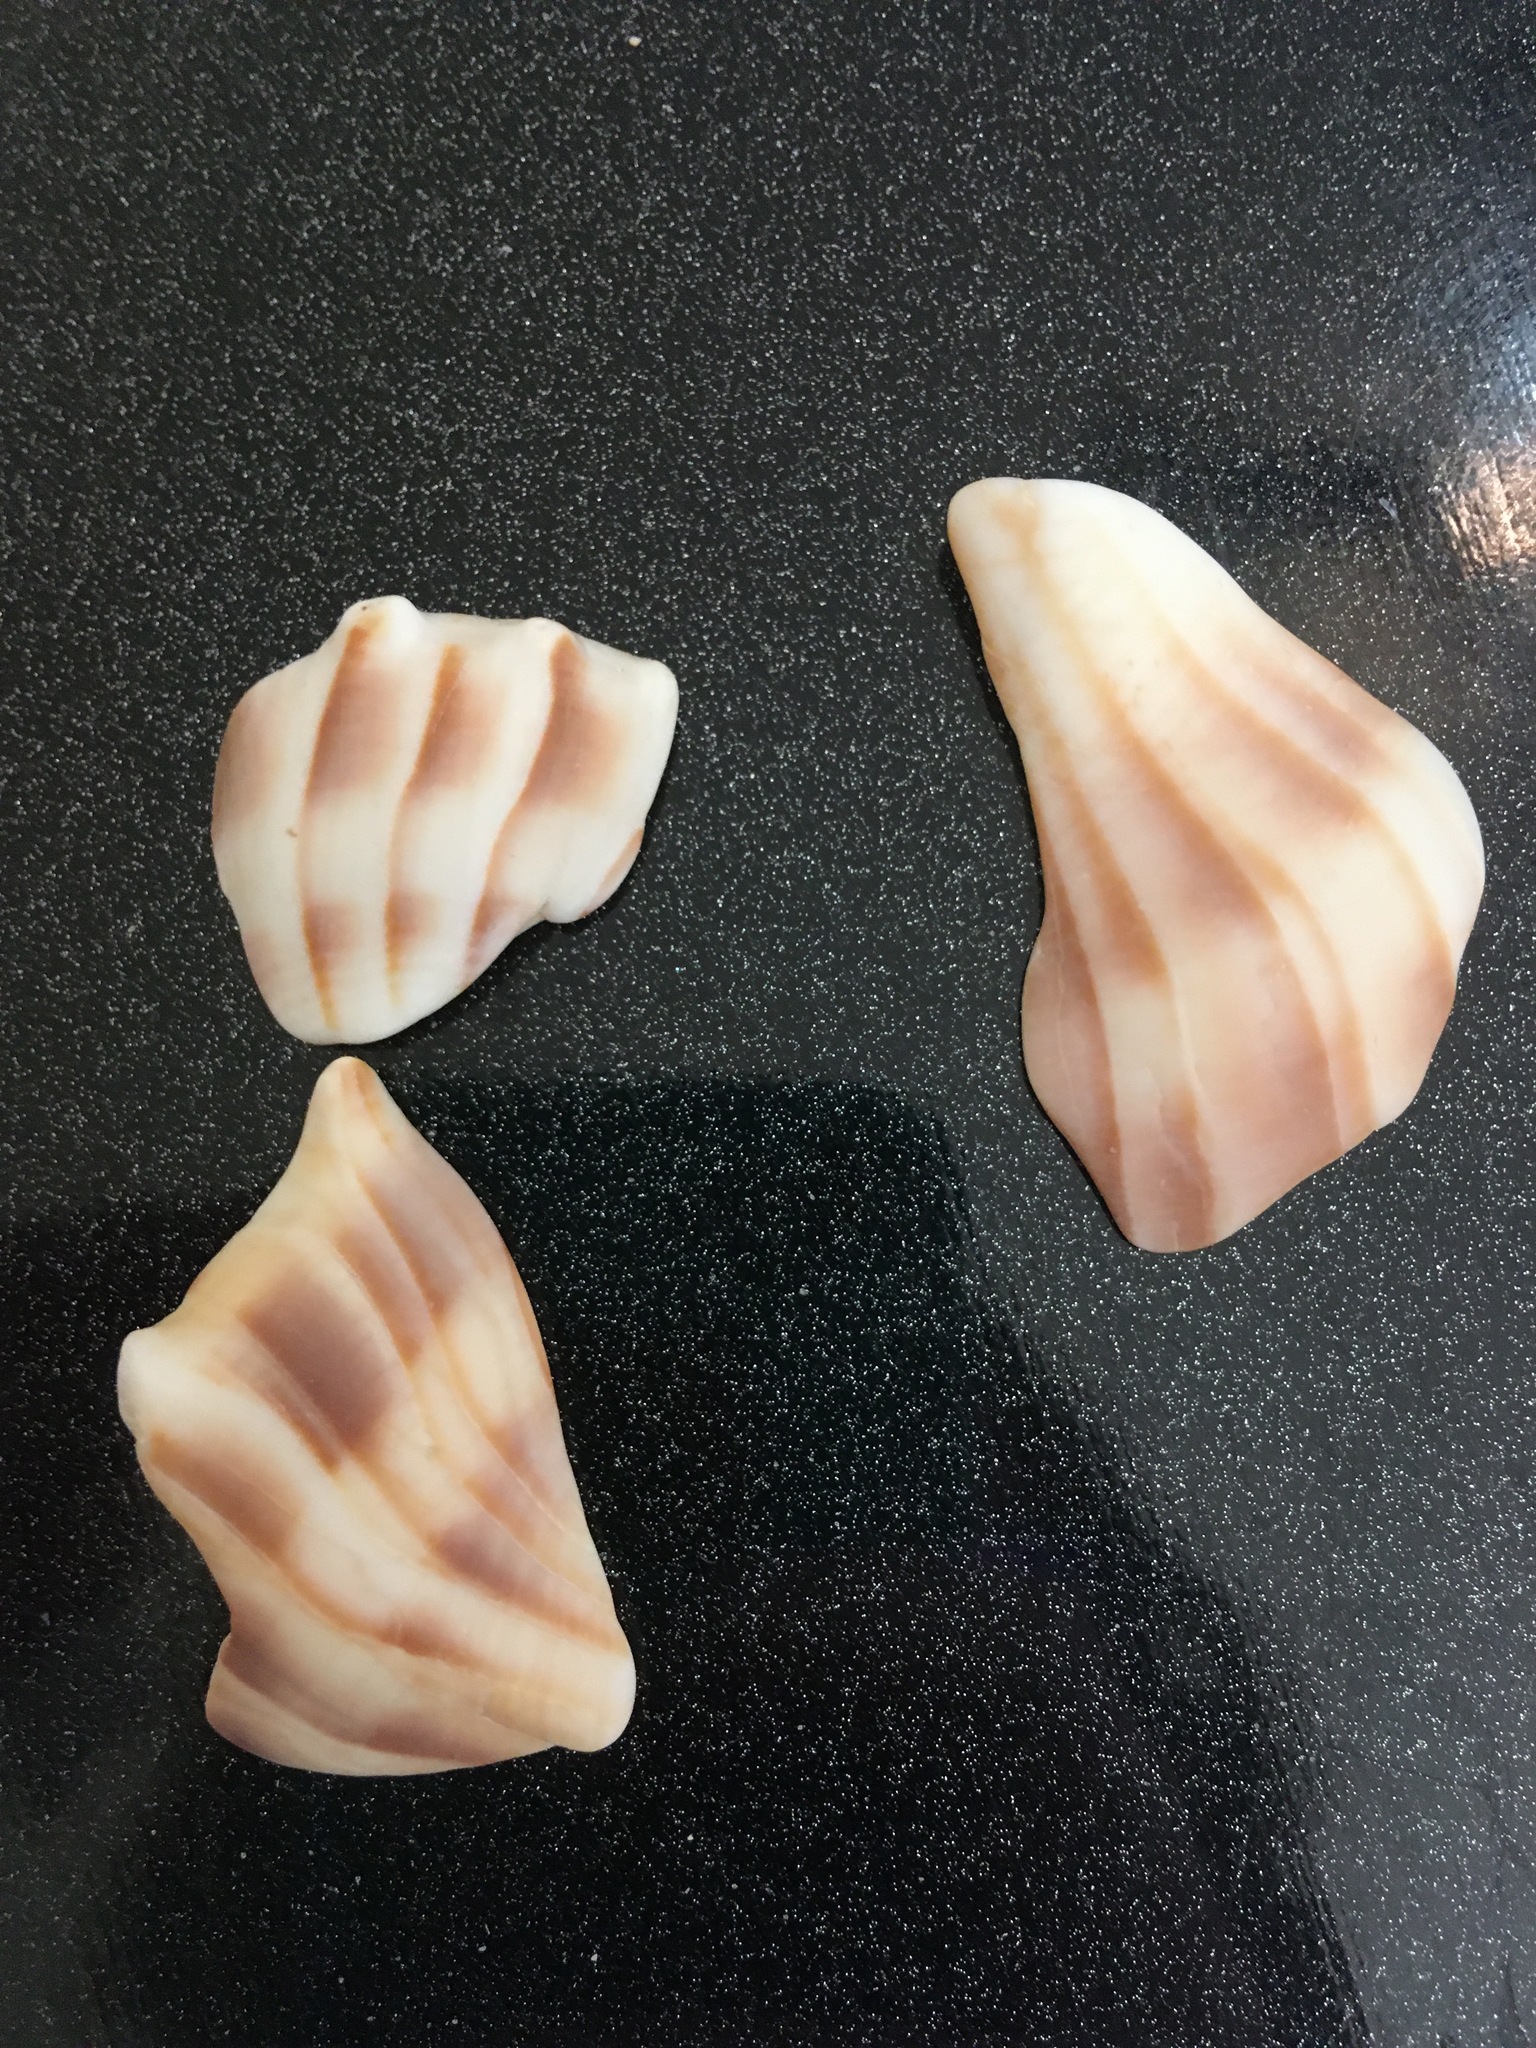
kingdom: Animalia
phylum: Mollusca
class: Gastropoda
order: Neogastropoda
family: Busyconidae
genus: Busycon
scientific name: Busycon carica
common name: Knobbed whelk
